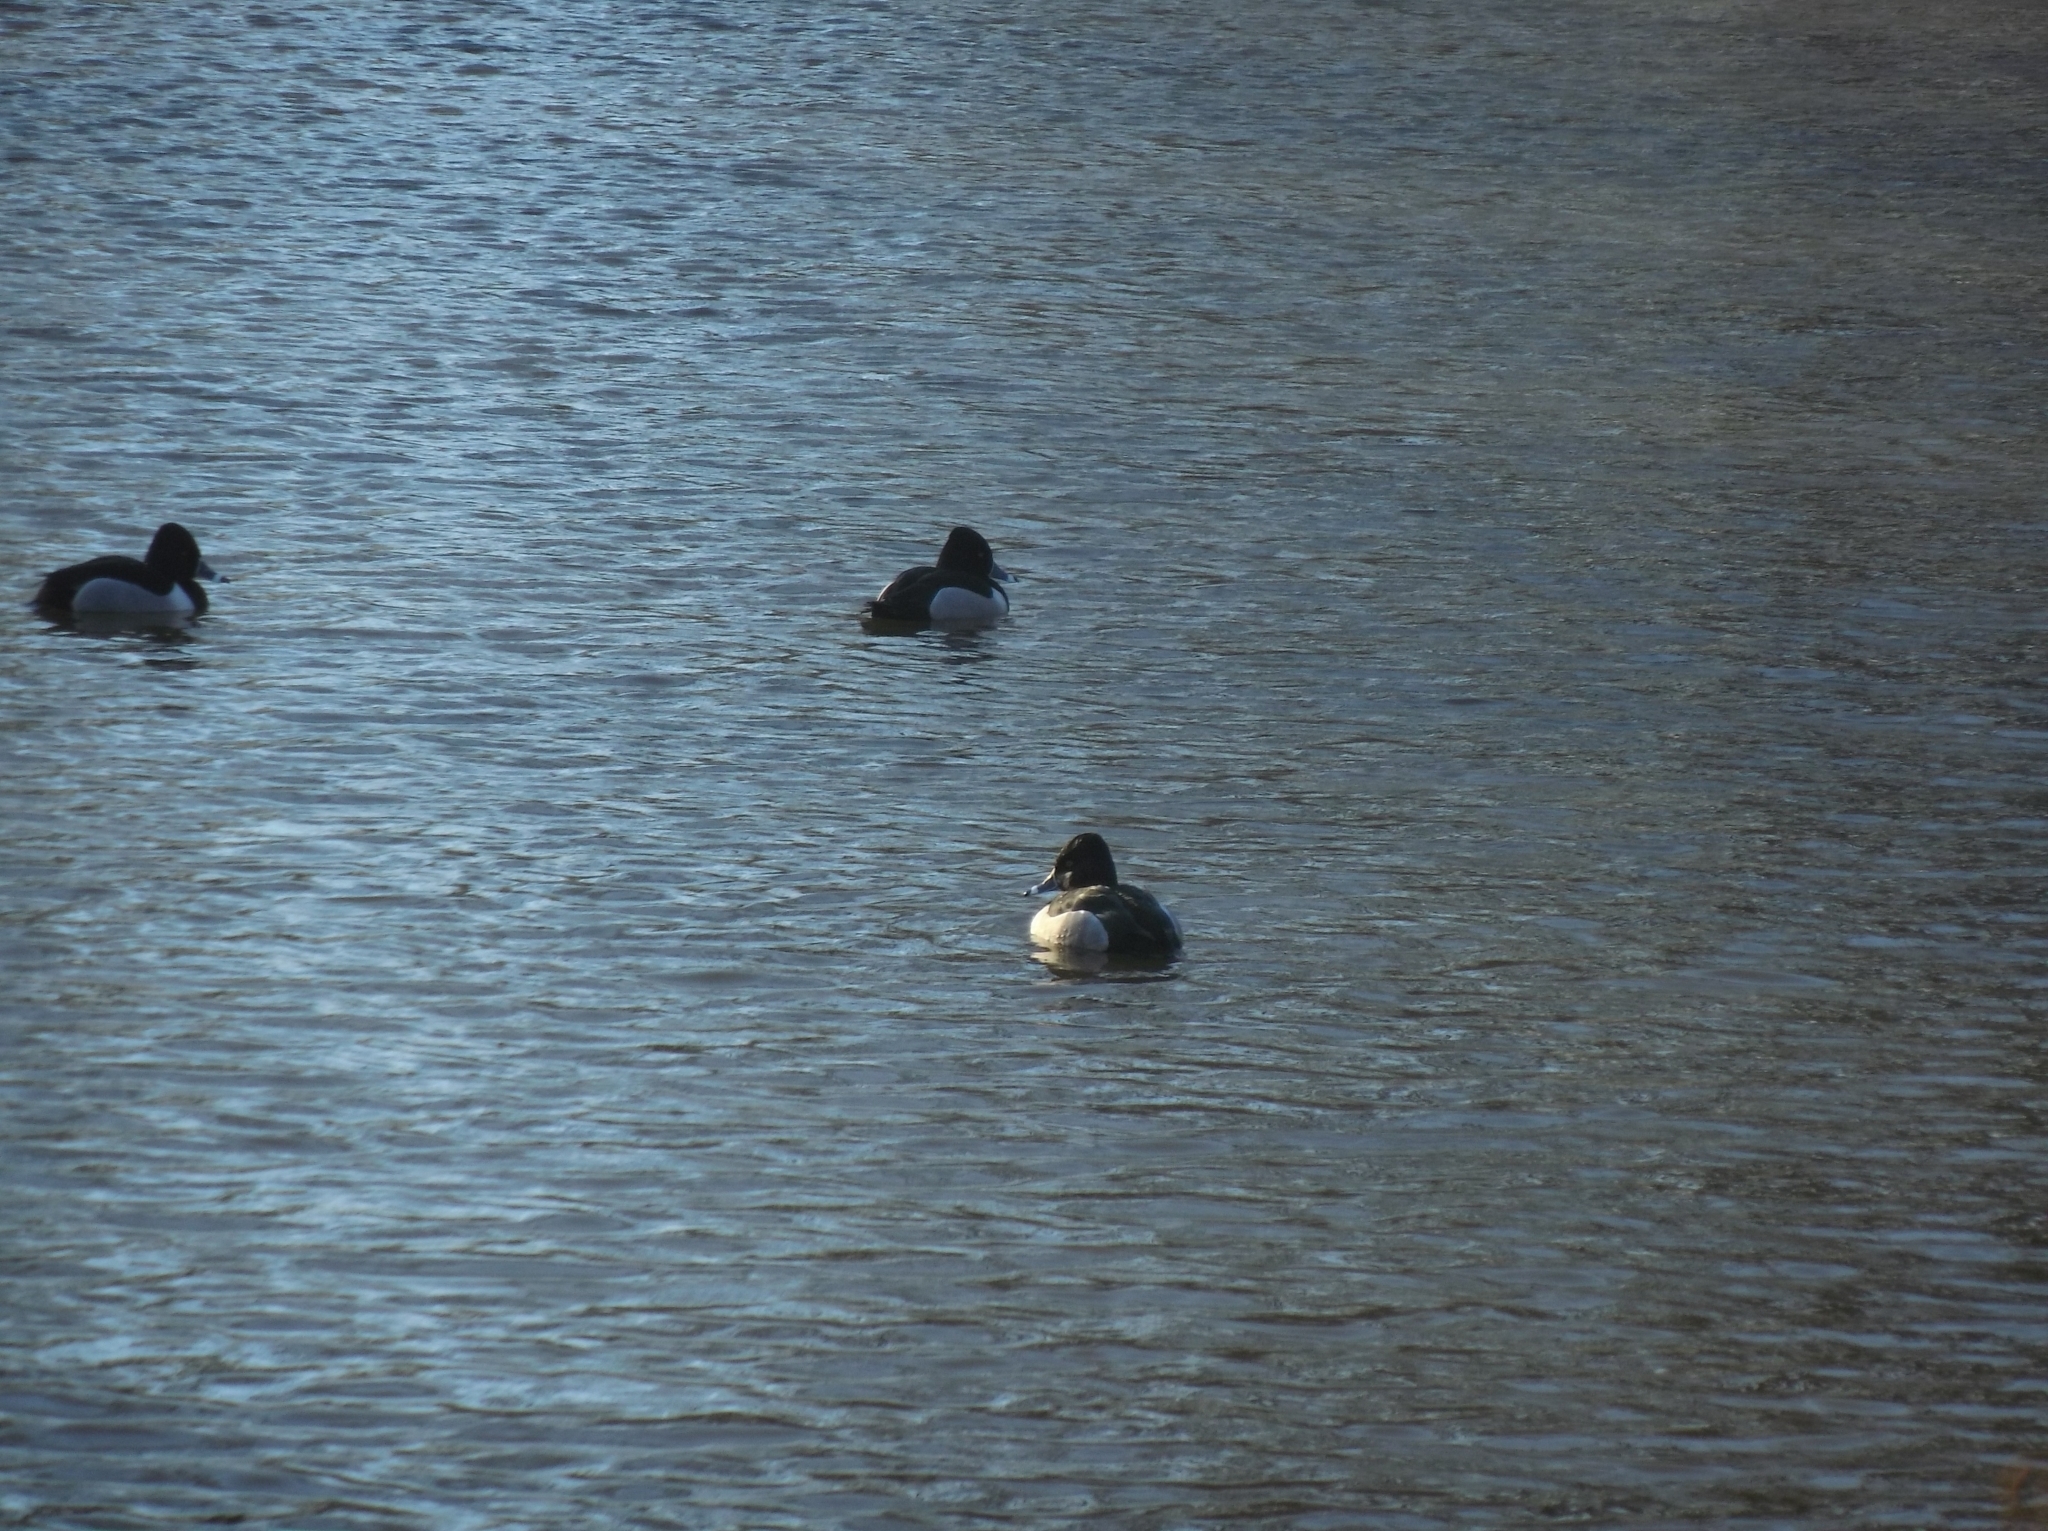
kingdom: Animalia
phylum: Chordata
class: Aves
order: Anseriformes
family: Anatidae
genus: Aythya
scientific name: Aythya collaris
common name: Ring-necked duck
